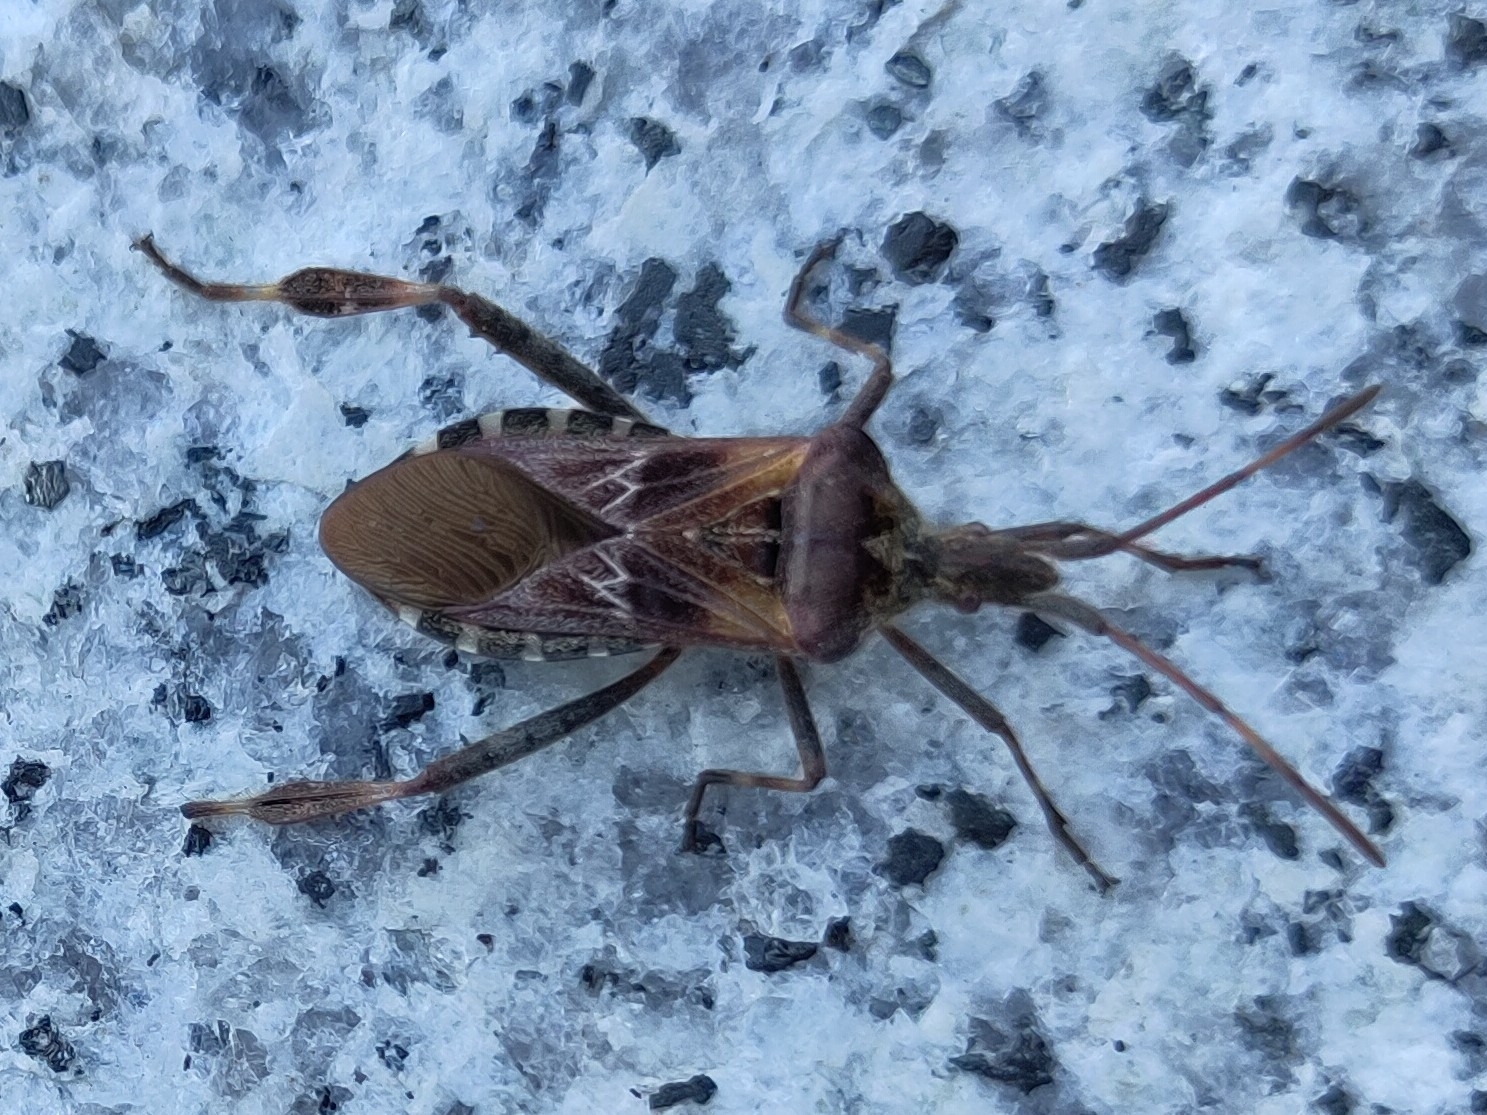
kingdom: Animalia
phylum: Arthropoda
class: Insecta
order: Hemiptera
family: Coreidae
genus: Leptoglossus
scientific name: Leptoglossus occidentalis
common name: Western conifer-seed bug
